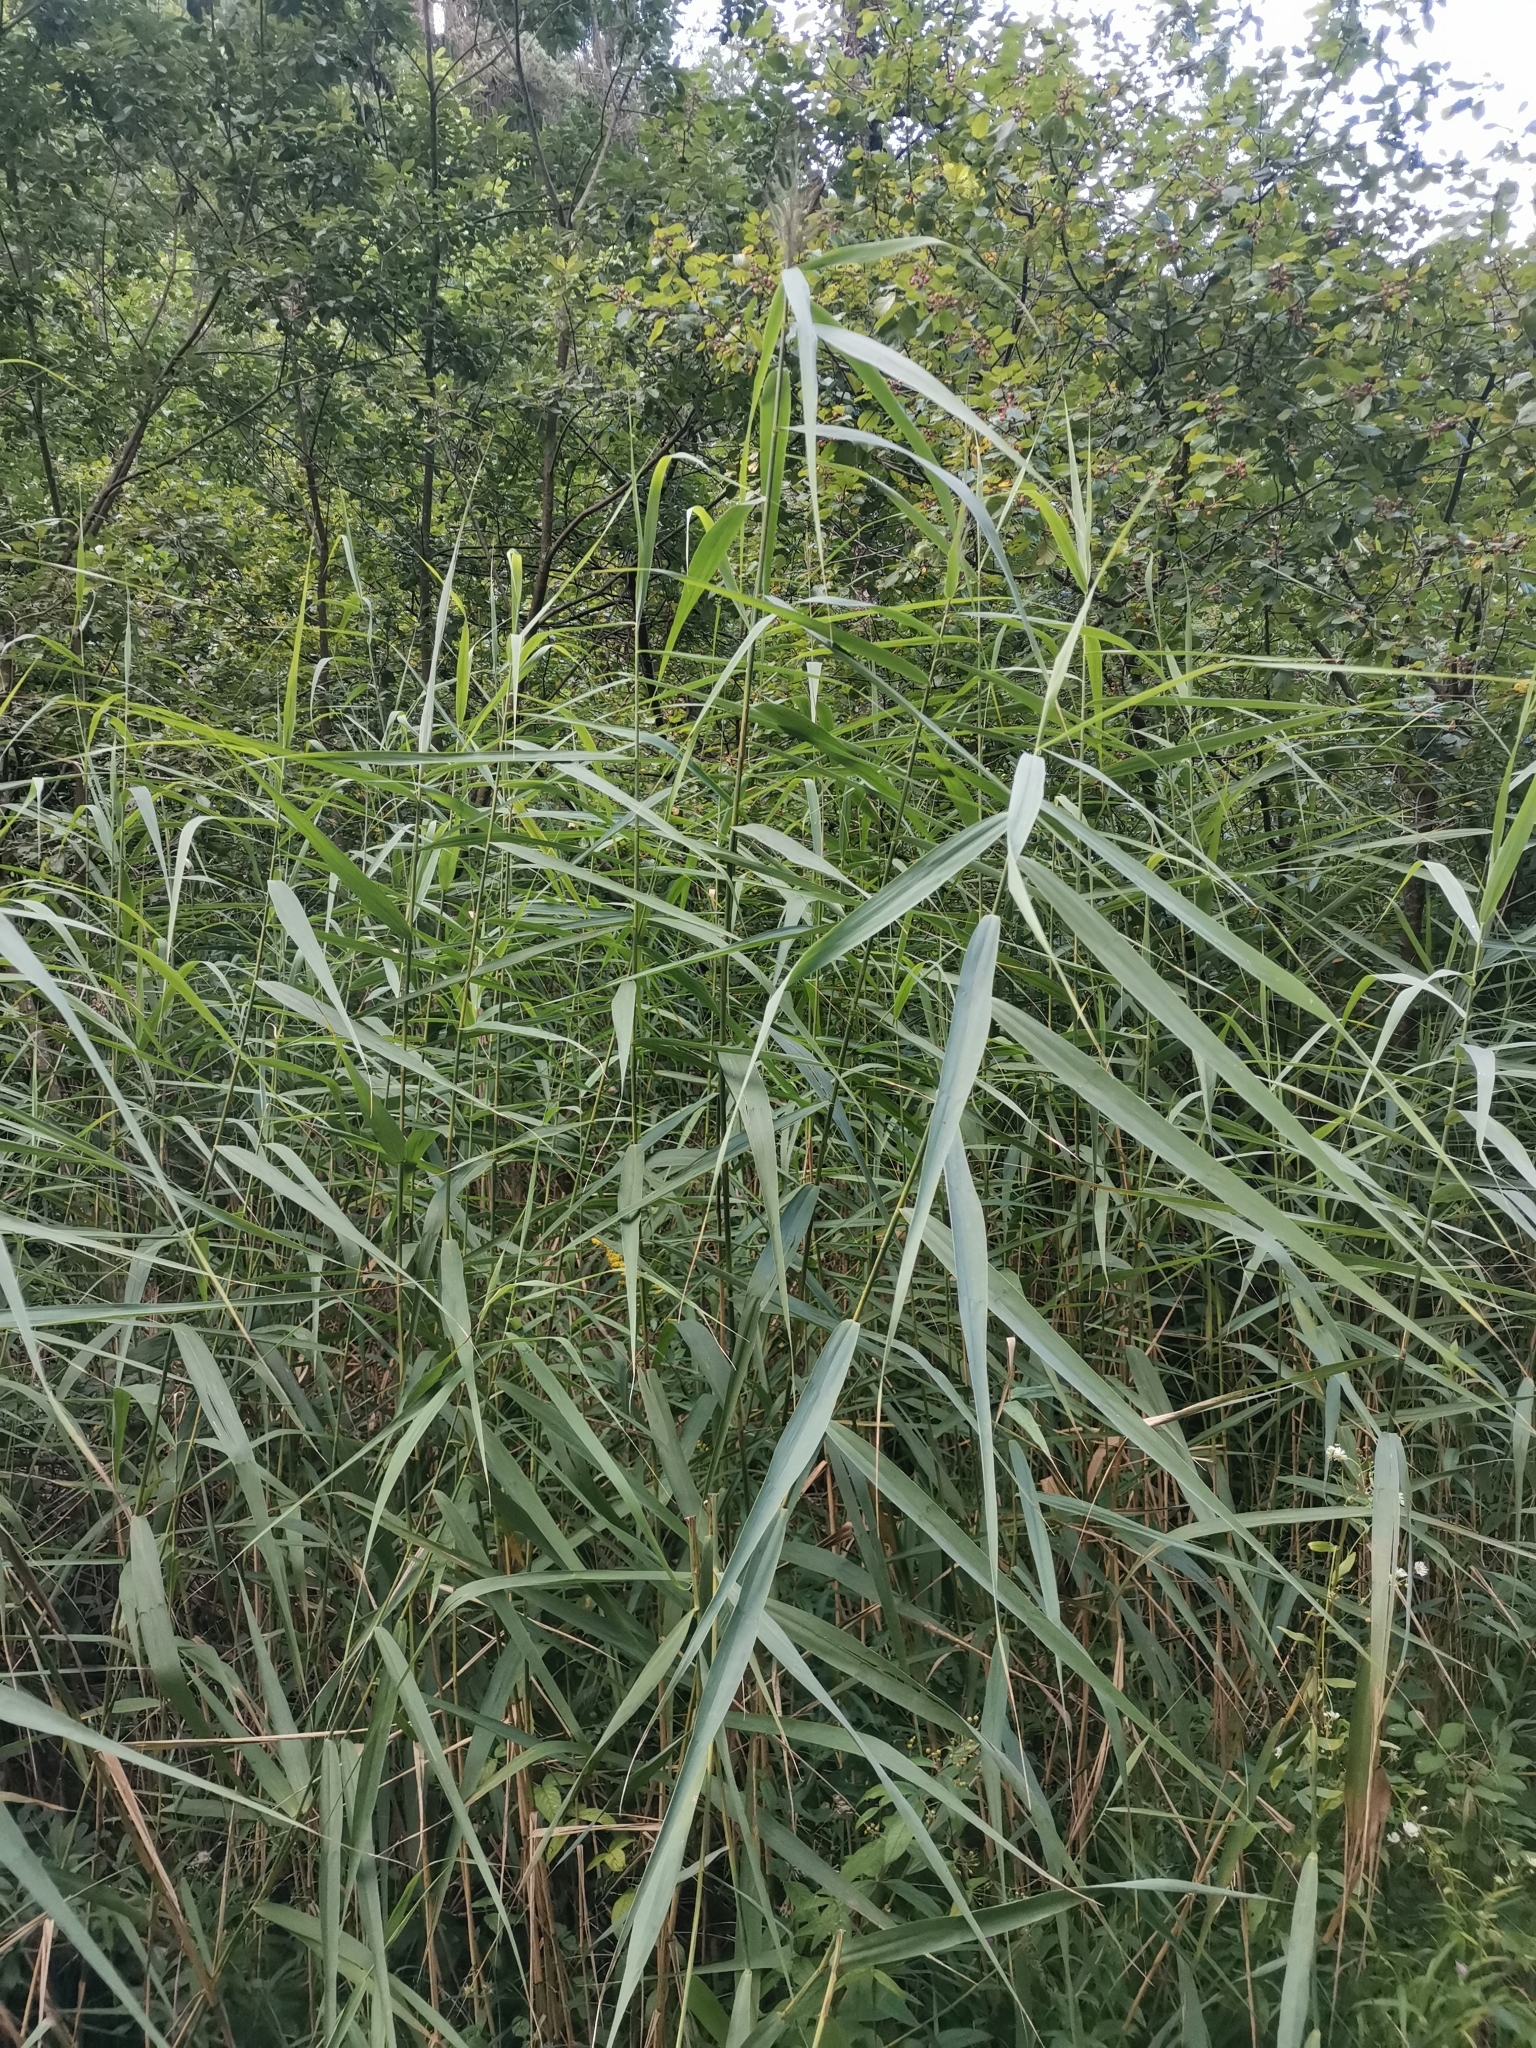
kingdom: Plantae
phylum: Tracheophyta
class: Liliopsida
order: Poales
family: Poaceae
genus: Phragmites
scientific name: Phragmites australis
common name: Common reed
